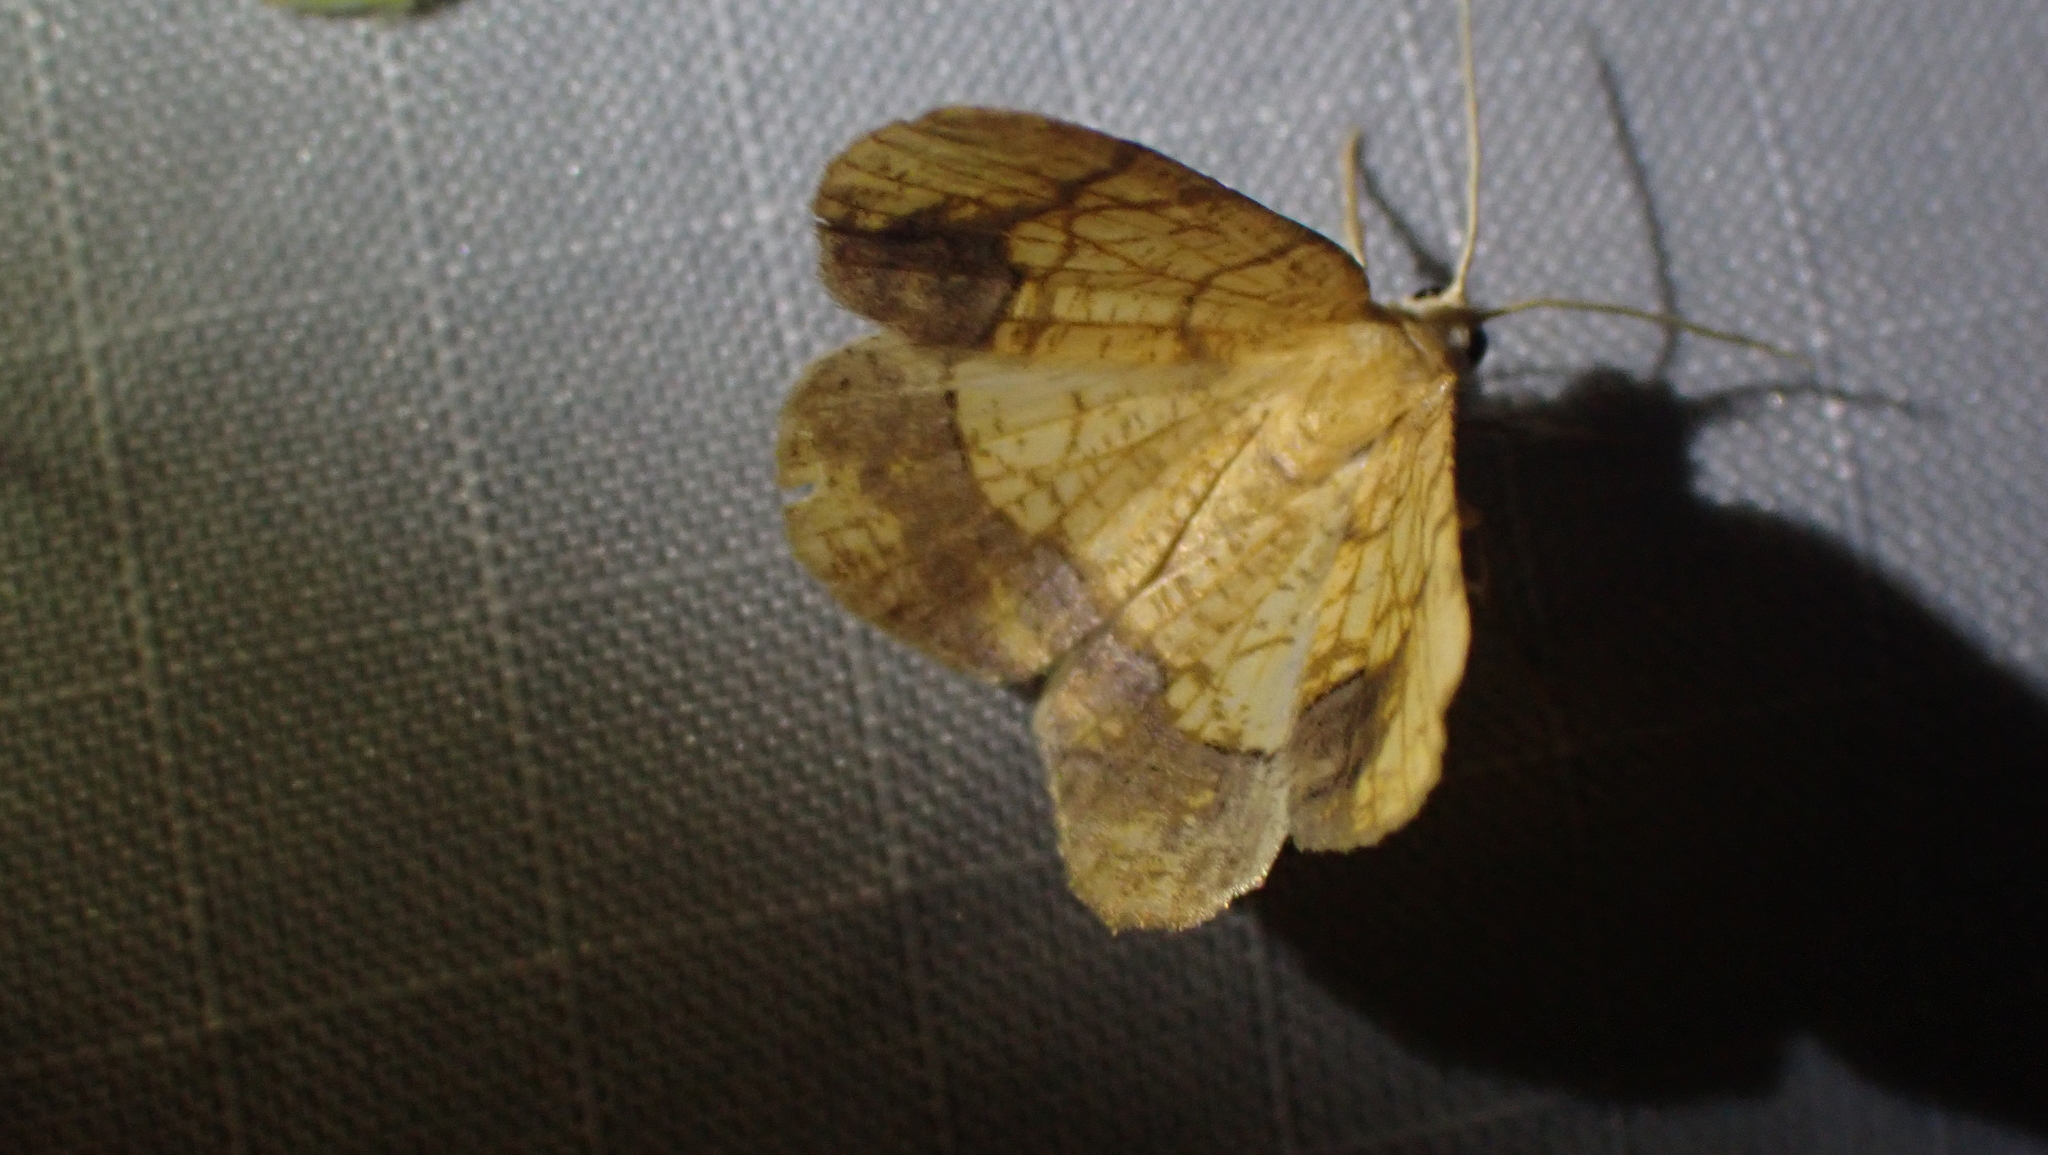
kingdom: Animalia
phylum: Arthropoda
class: Insecta
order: Lepidoptera
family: Geometridae
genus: Nematocampa
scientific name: Nematocampa resistaria
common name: Horned spanworm moth
